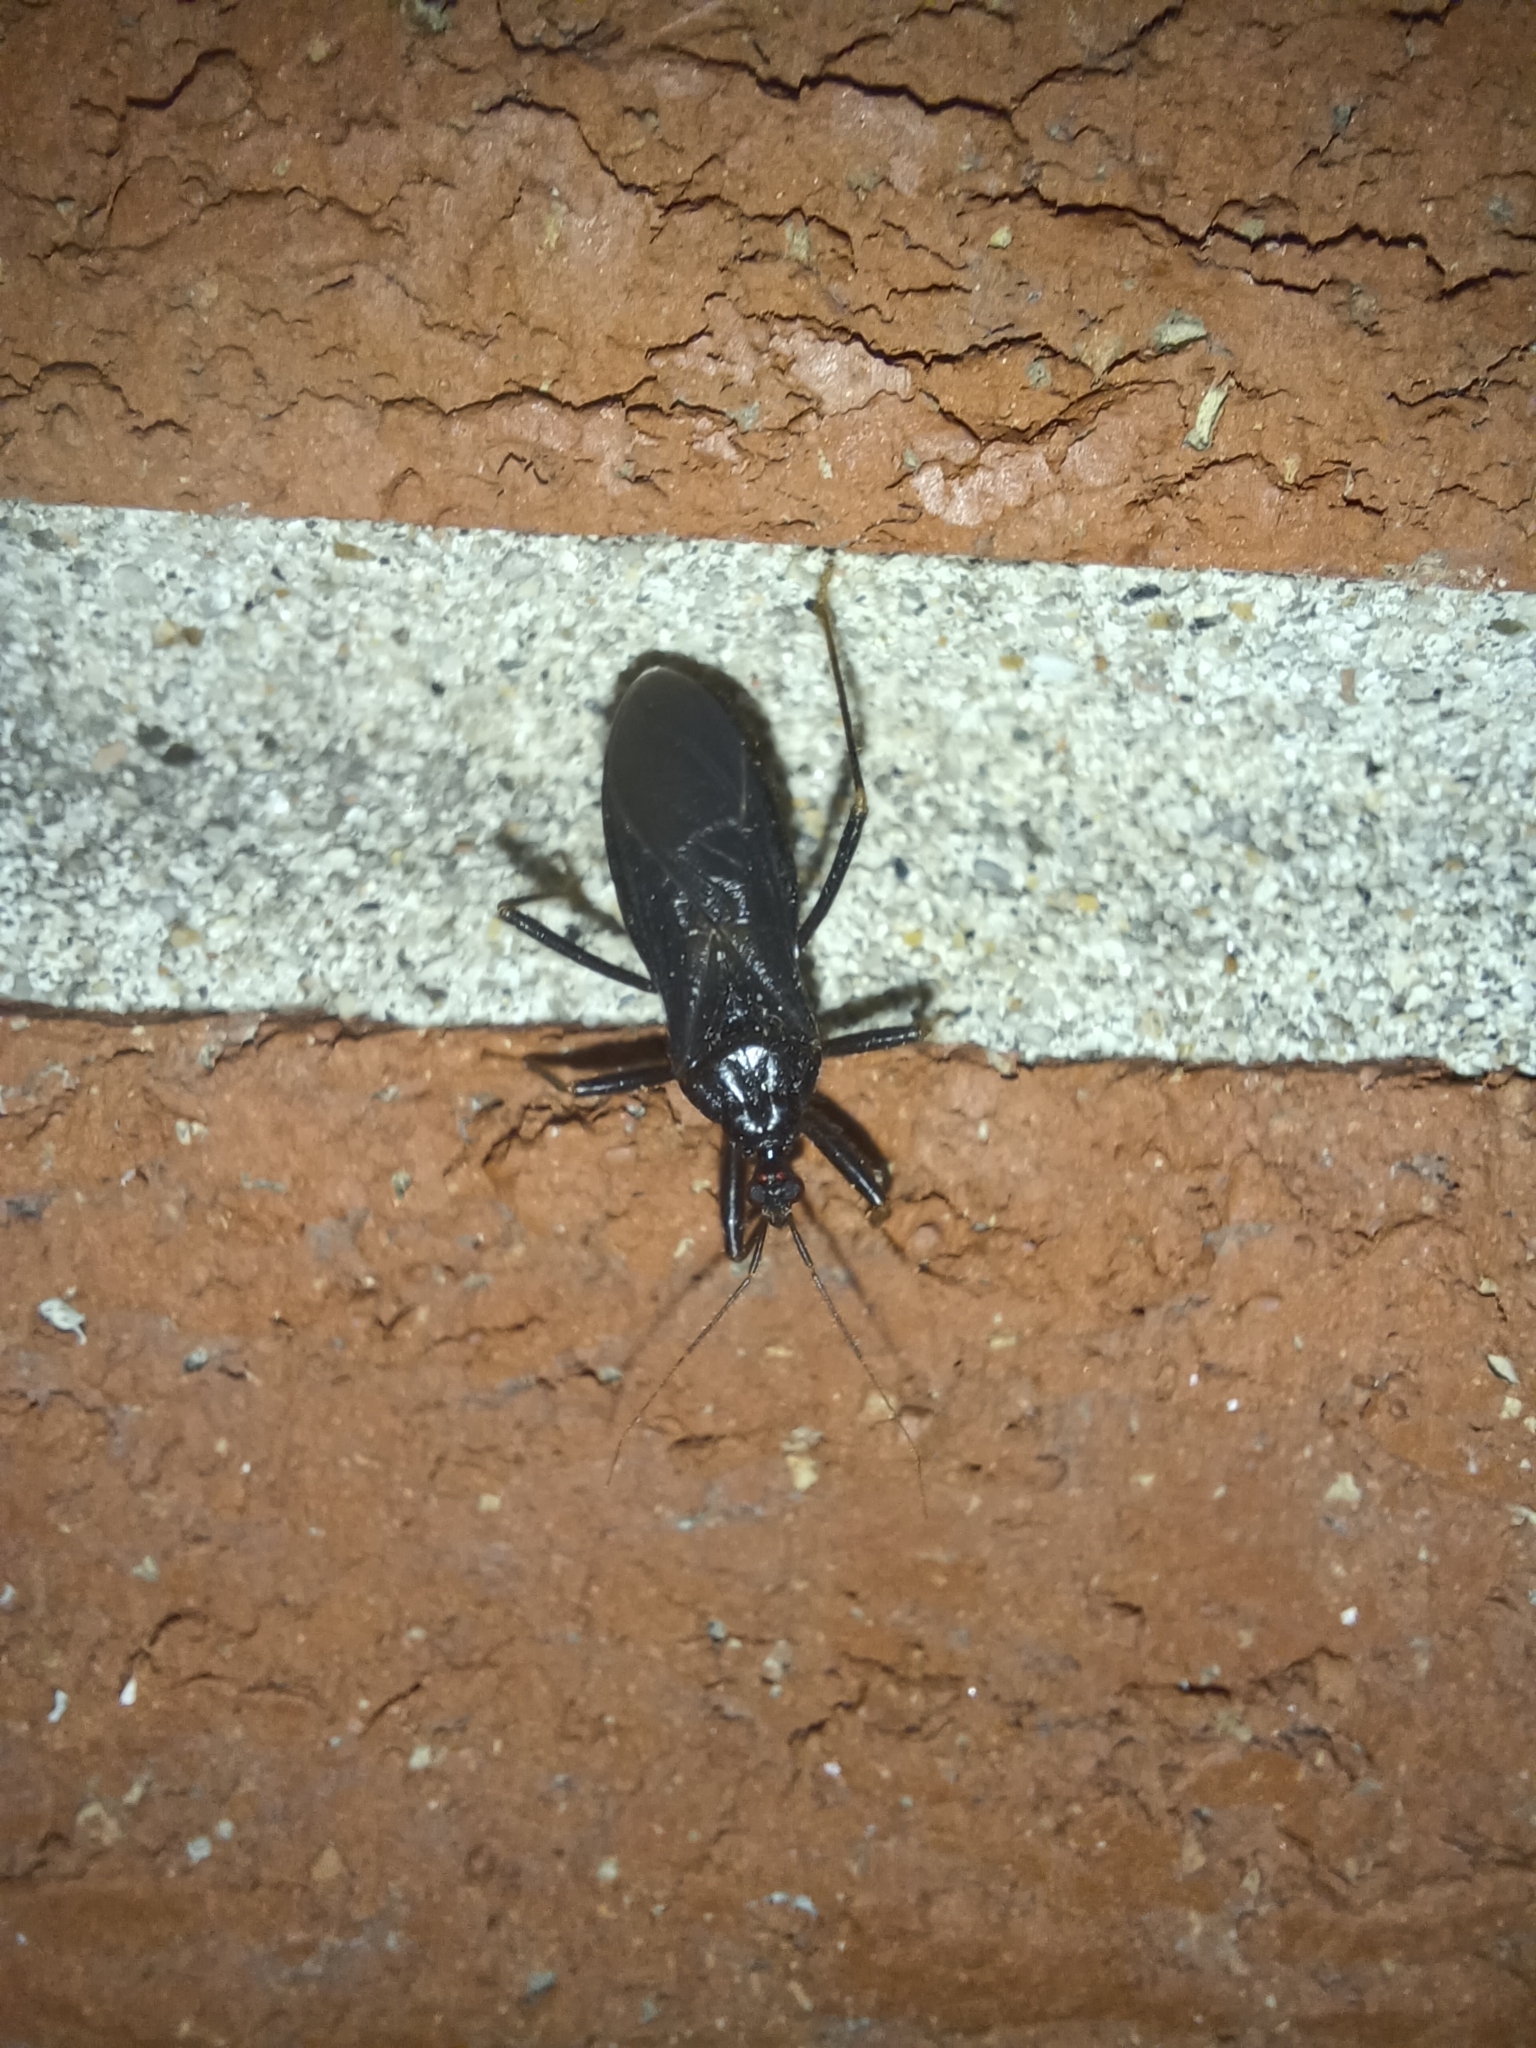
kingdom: Animalia
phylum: Arthropoda
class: Insecta
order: Hemiptera
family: Reduviidae
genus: Reduvius
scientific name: Reduvius personatus
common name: Masked hunter
